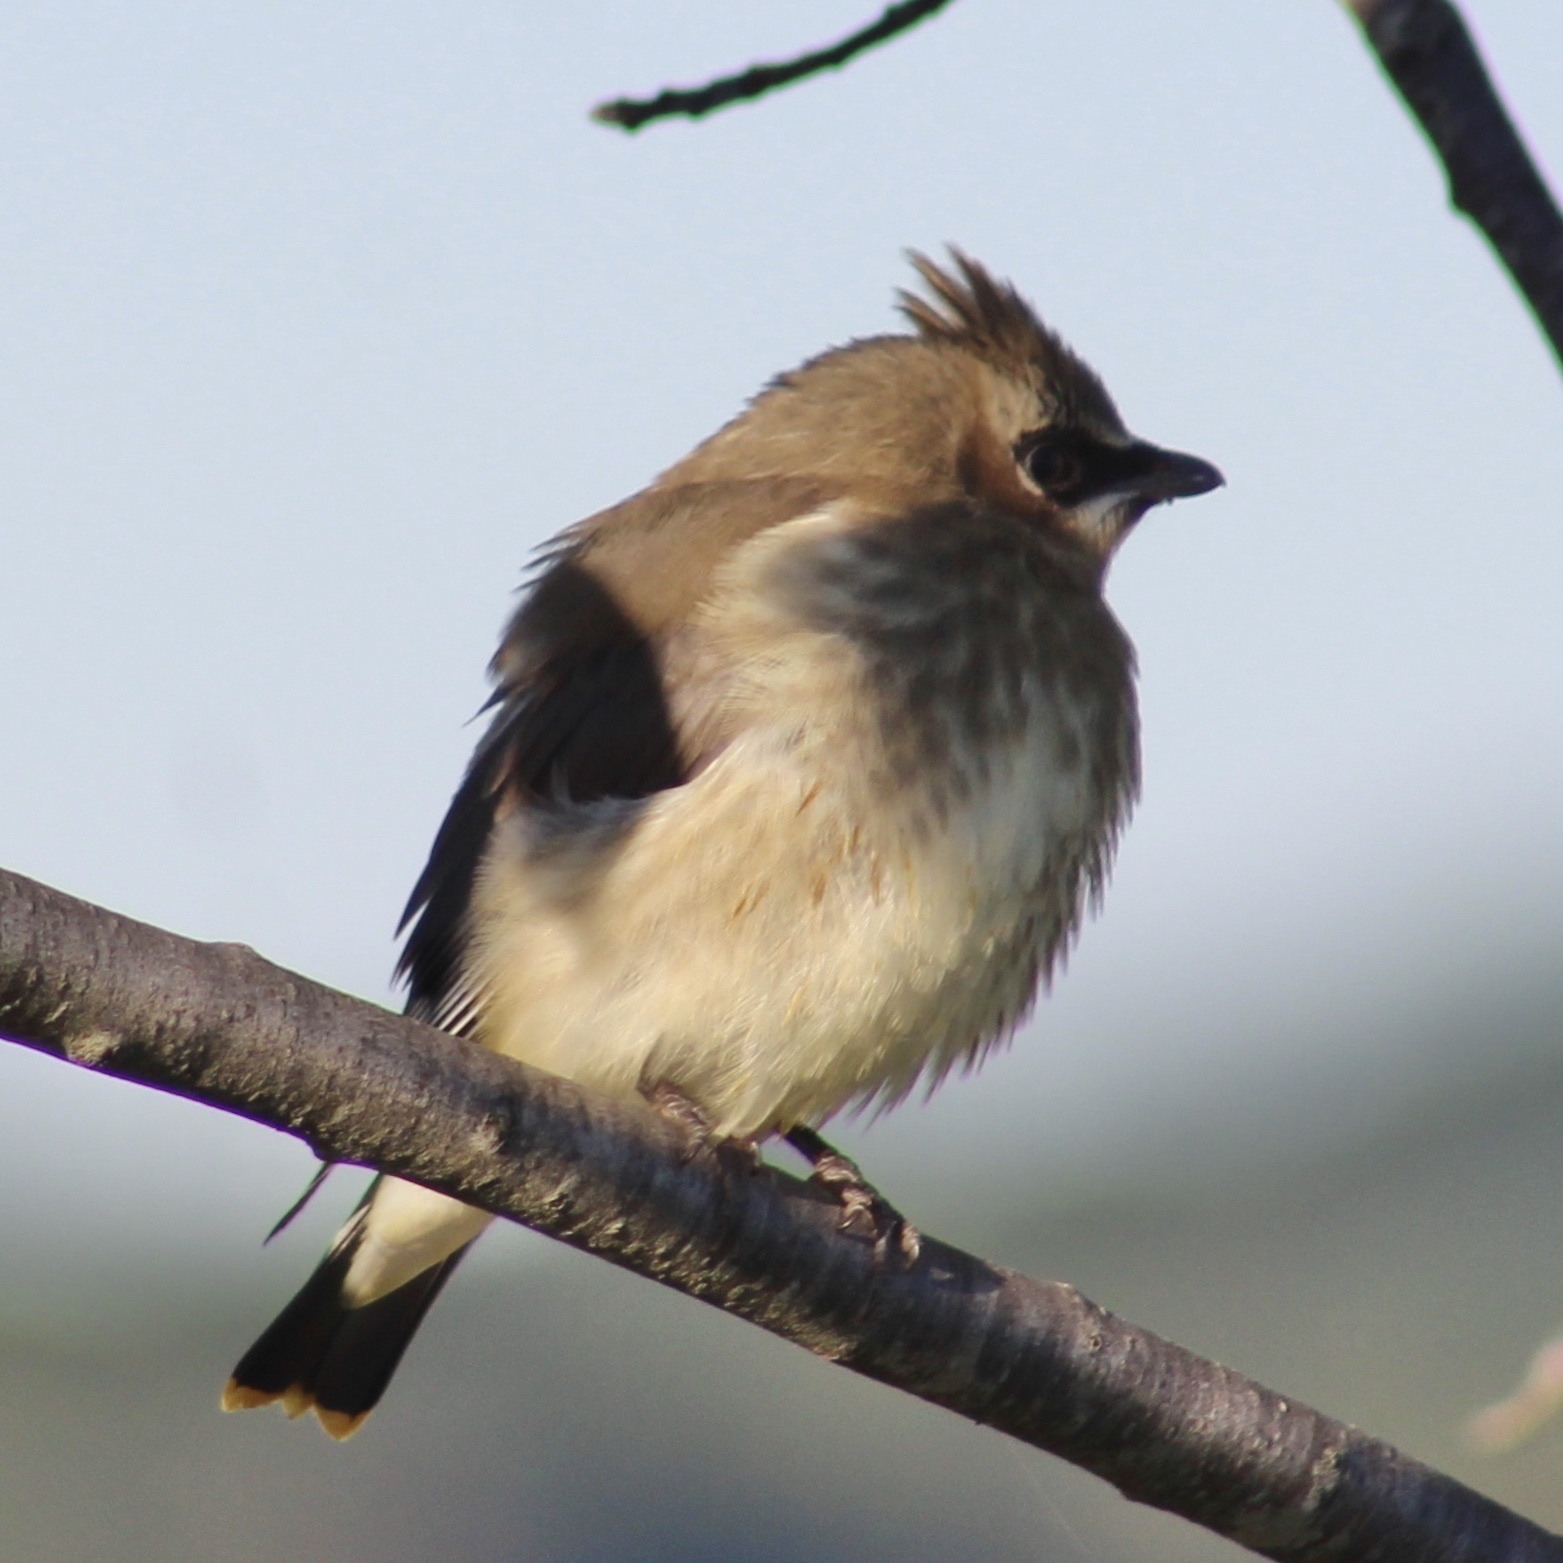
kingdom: Animalia
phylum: Chordata
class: Aves
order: Passeriformes
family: Bombycillidae
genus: Bombycilla
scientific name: Bombycilla cedrorum
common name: Cedar waxwing
